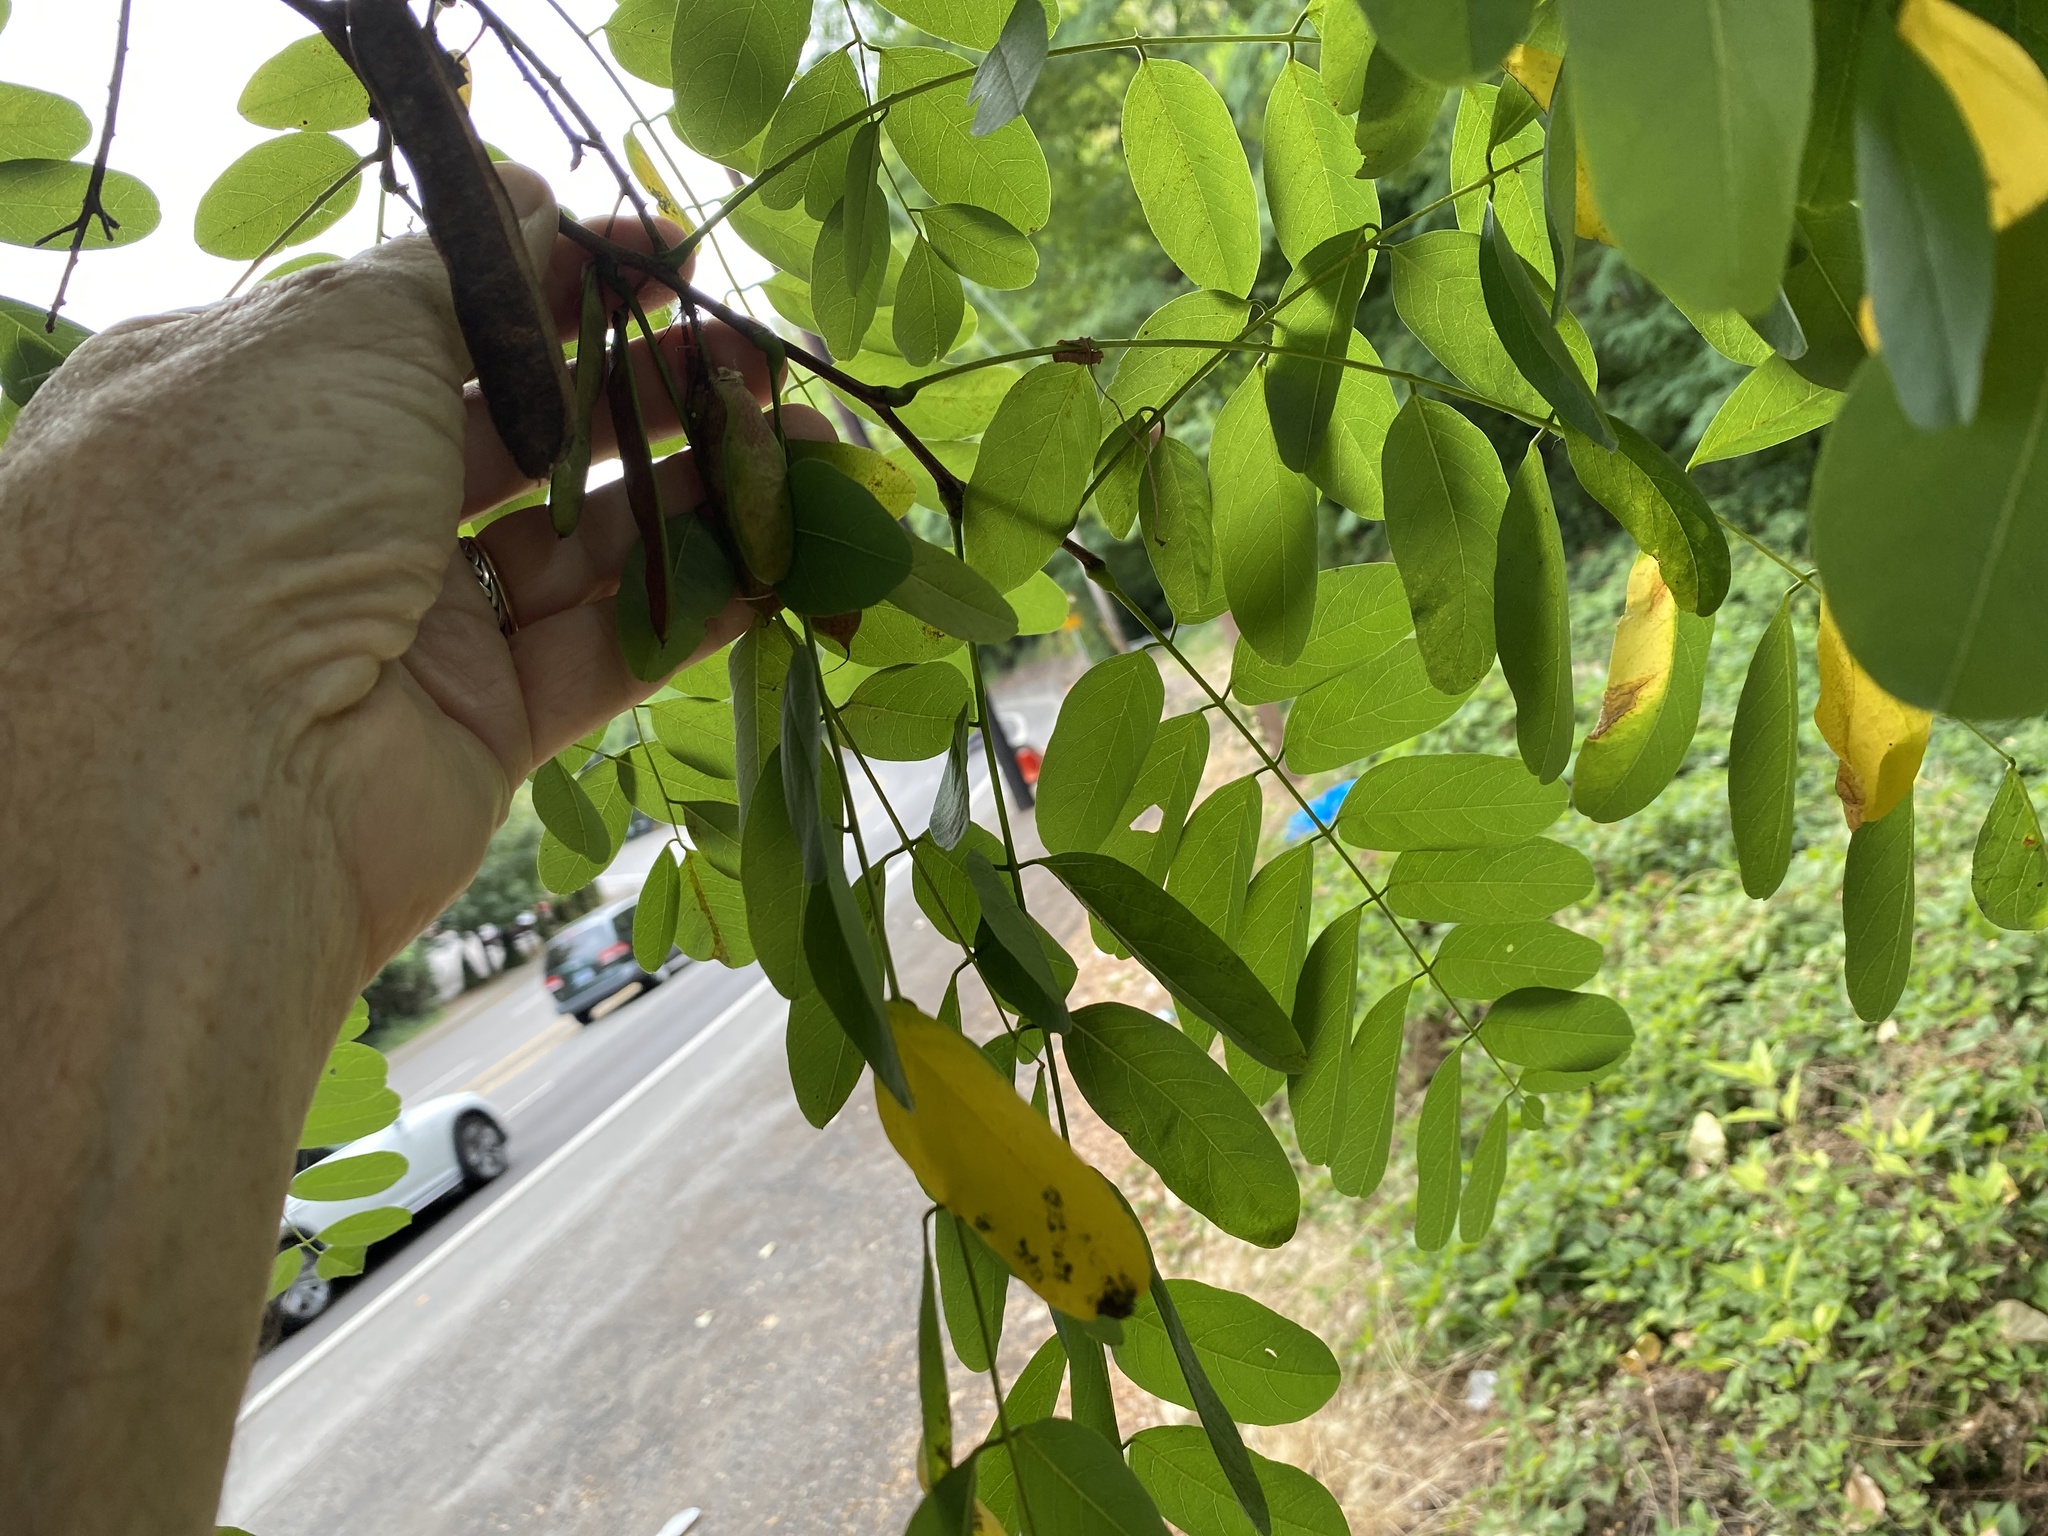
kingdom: Plantae
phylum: Tracheophyta
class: Magnoliopsida
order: Fabales
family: Fabaceae
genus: Robinia
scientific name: Robinia pseudoacacia
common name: Black locust
